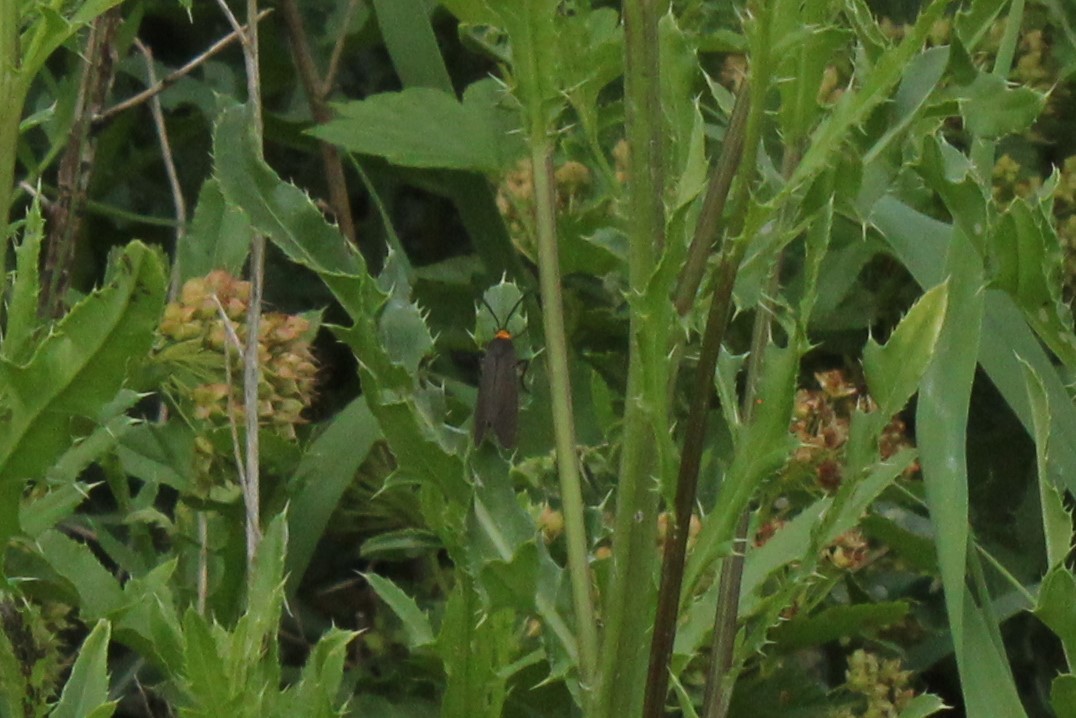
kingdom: Animalia
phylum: Arthropoda
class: Insecta
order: Lepidoptera
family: Erebidae
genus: Cisseps
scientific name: Cisseps fulvicollis
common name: Yellow-collared scape moth
